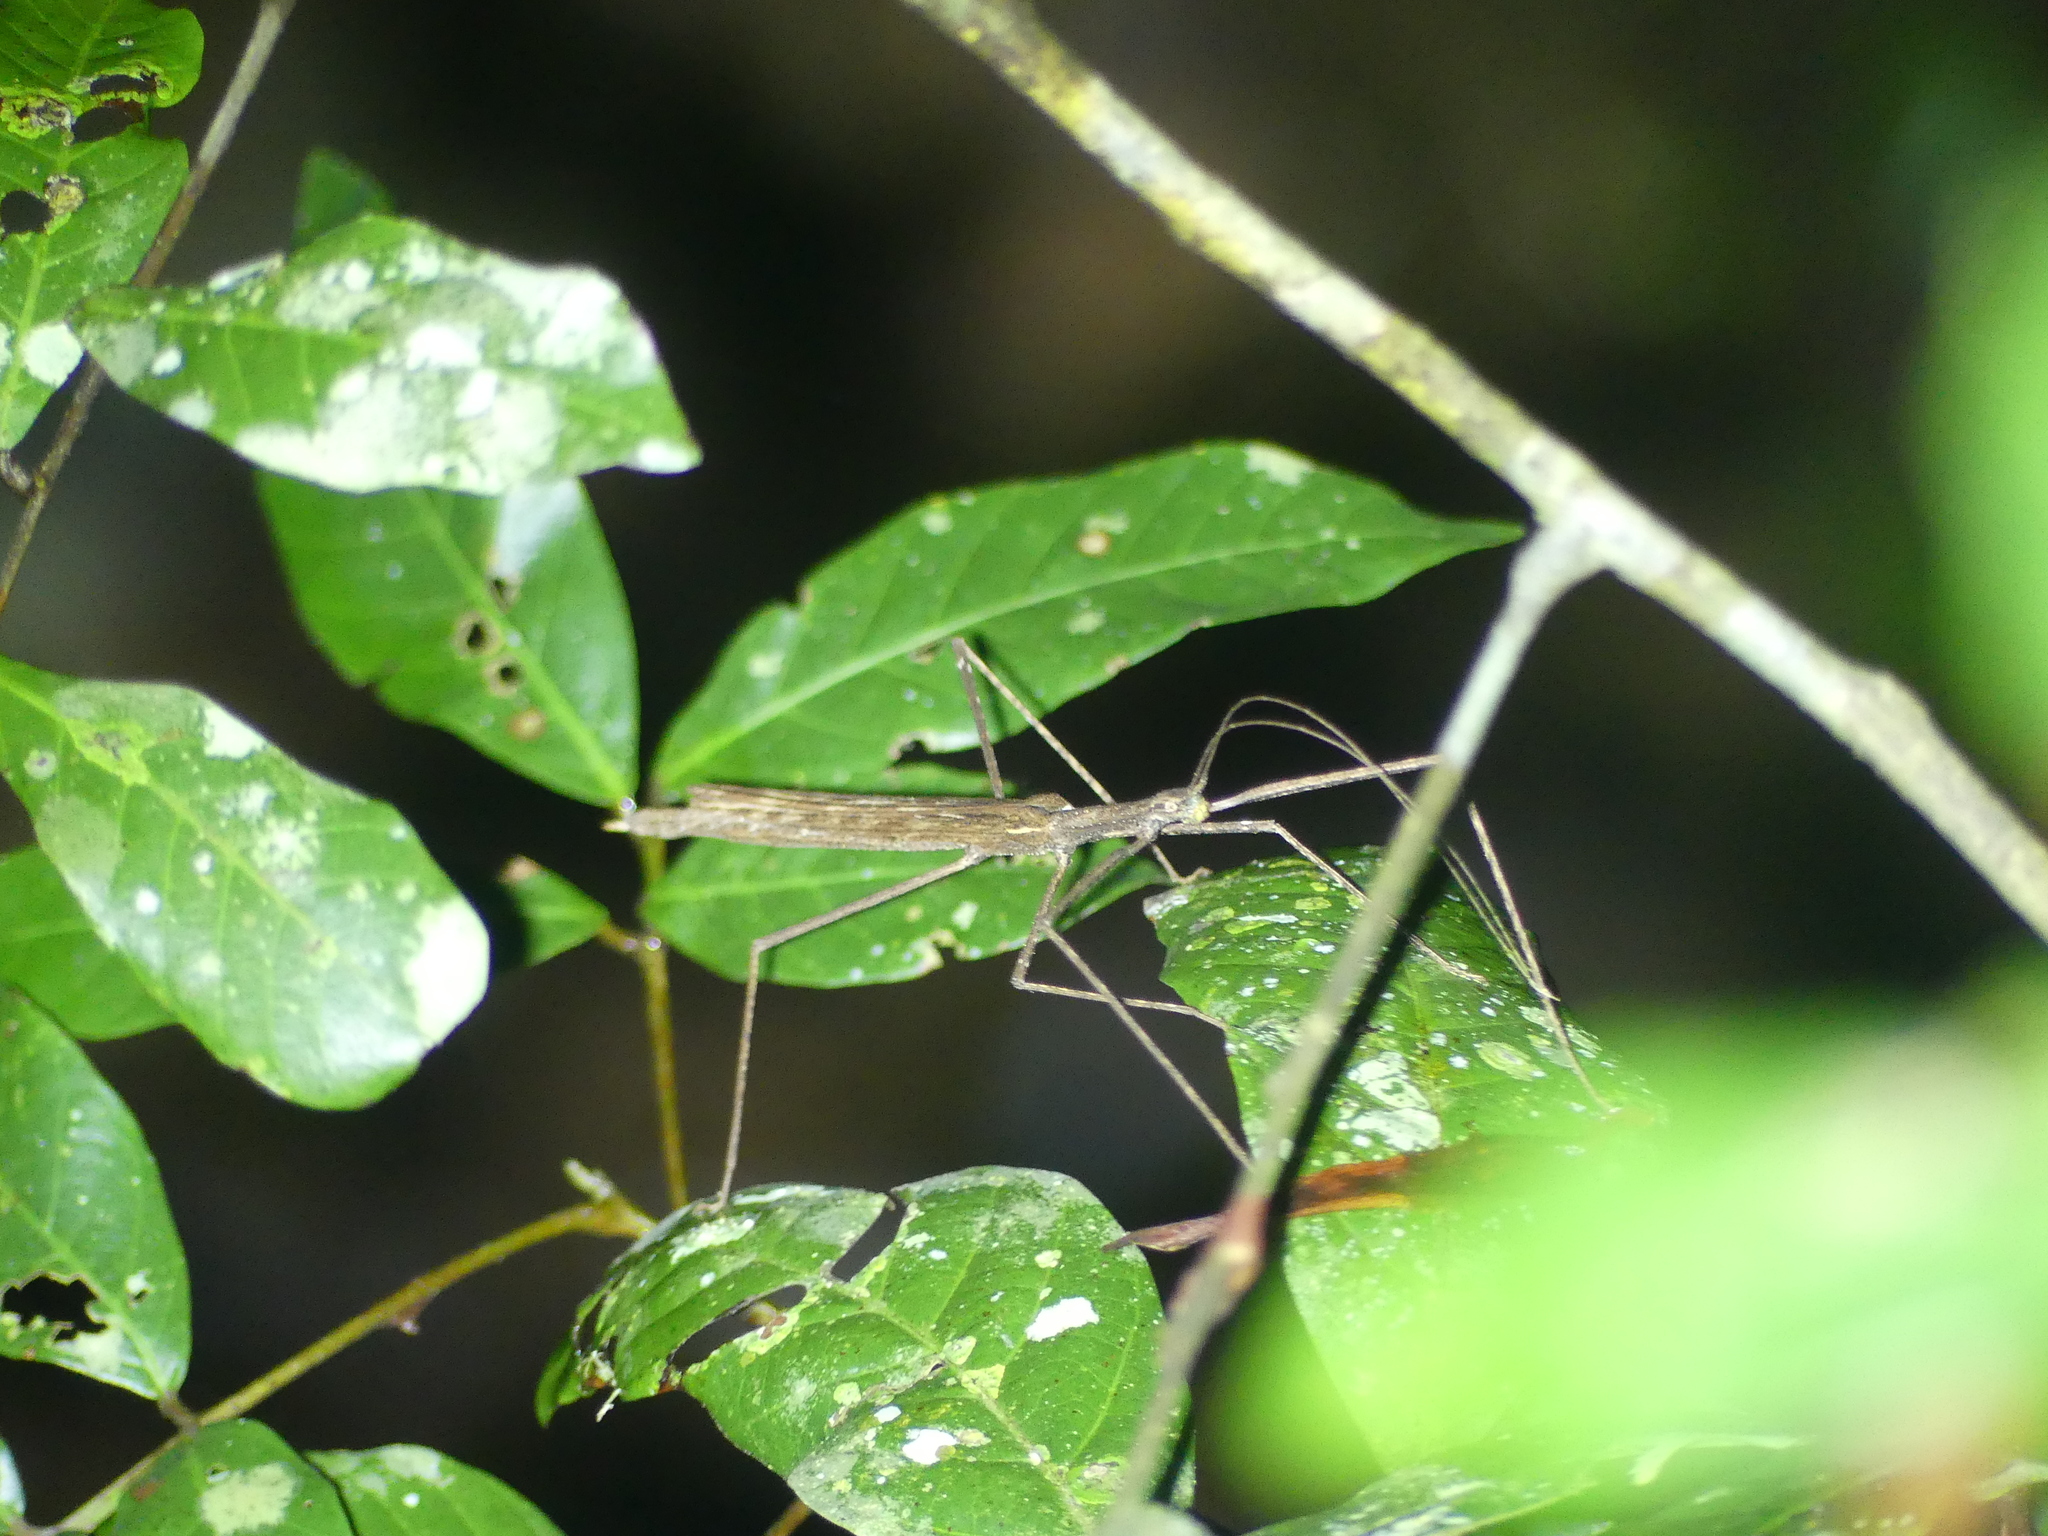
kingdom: Animalia
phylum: Arthropoda
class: Insecta
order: Phasmida
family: Lonchodidae
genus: Sipyloidea
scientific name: Sipyloidea larryi
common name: Hurricane larry stick-insect
